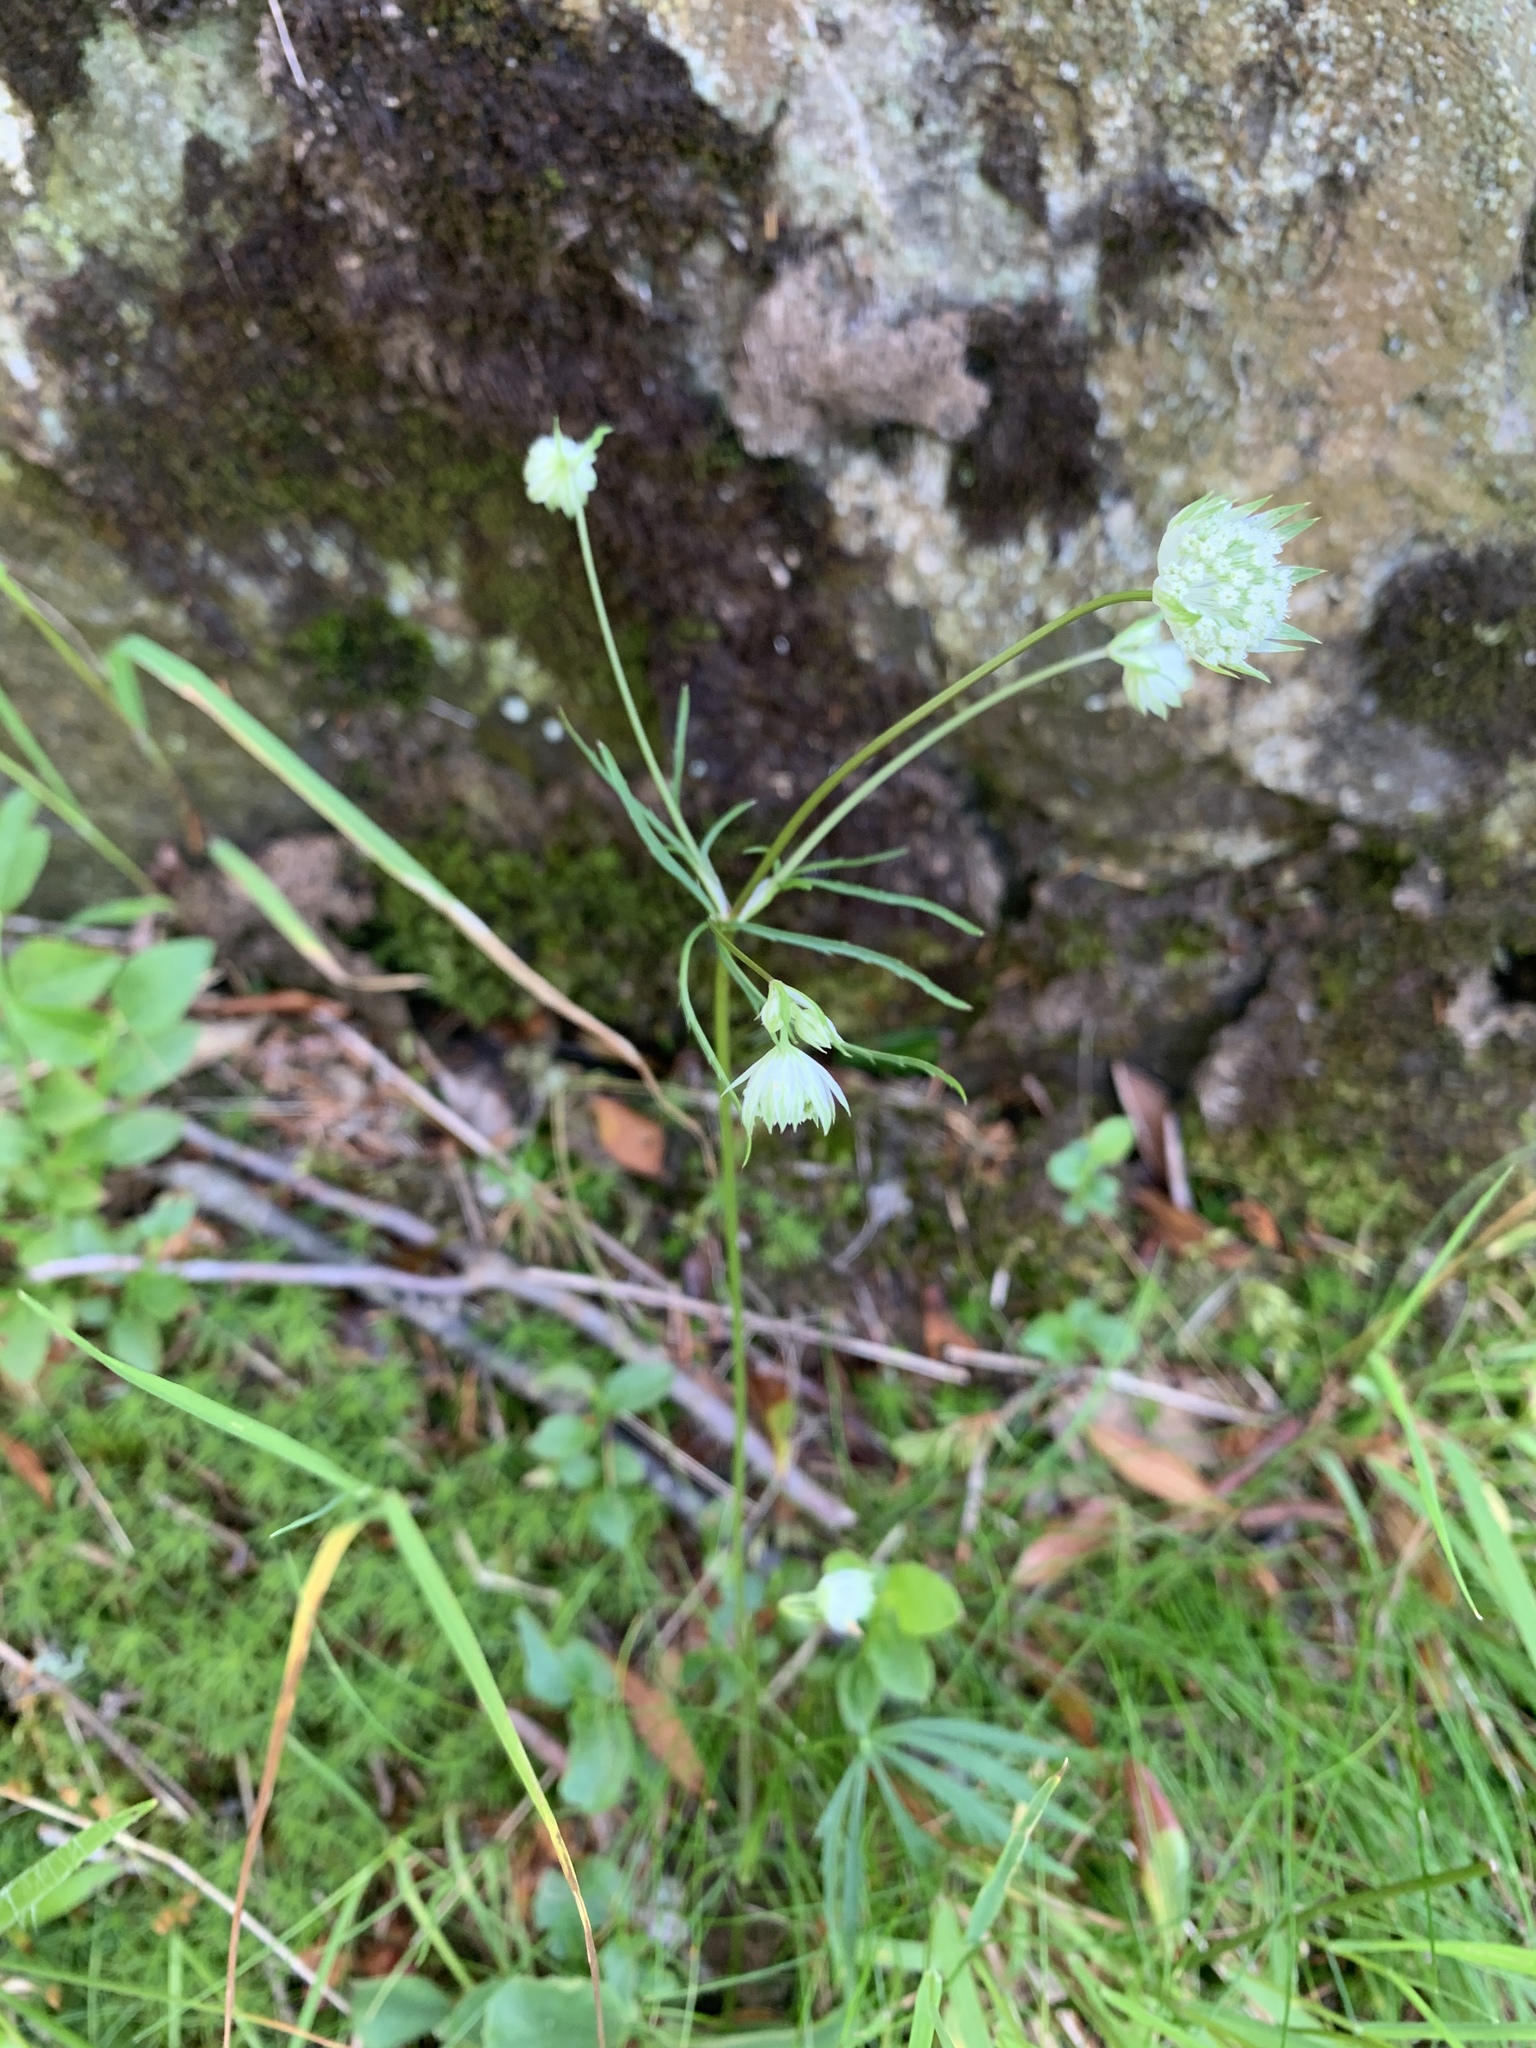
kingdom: Plantae
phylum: Tracheophyta
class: Magnoliopsida
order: Apiales
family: Apiaceae
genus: Astrantia
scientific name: Astrantia minor
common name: Lesser masterwort
